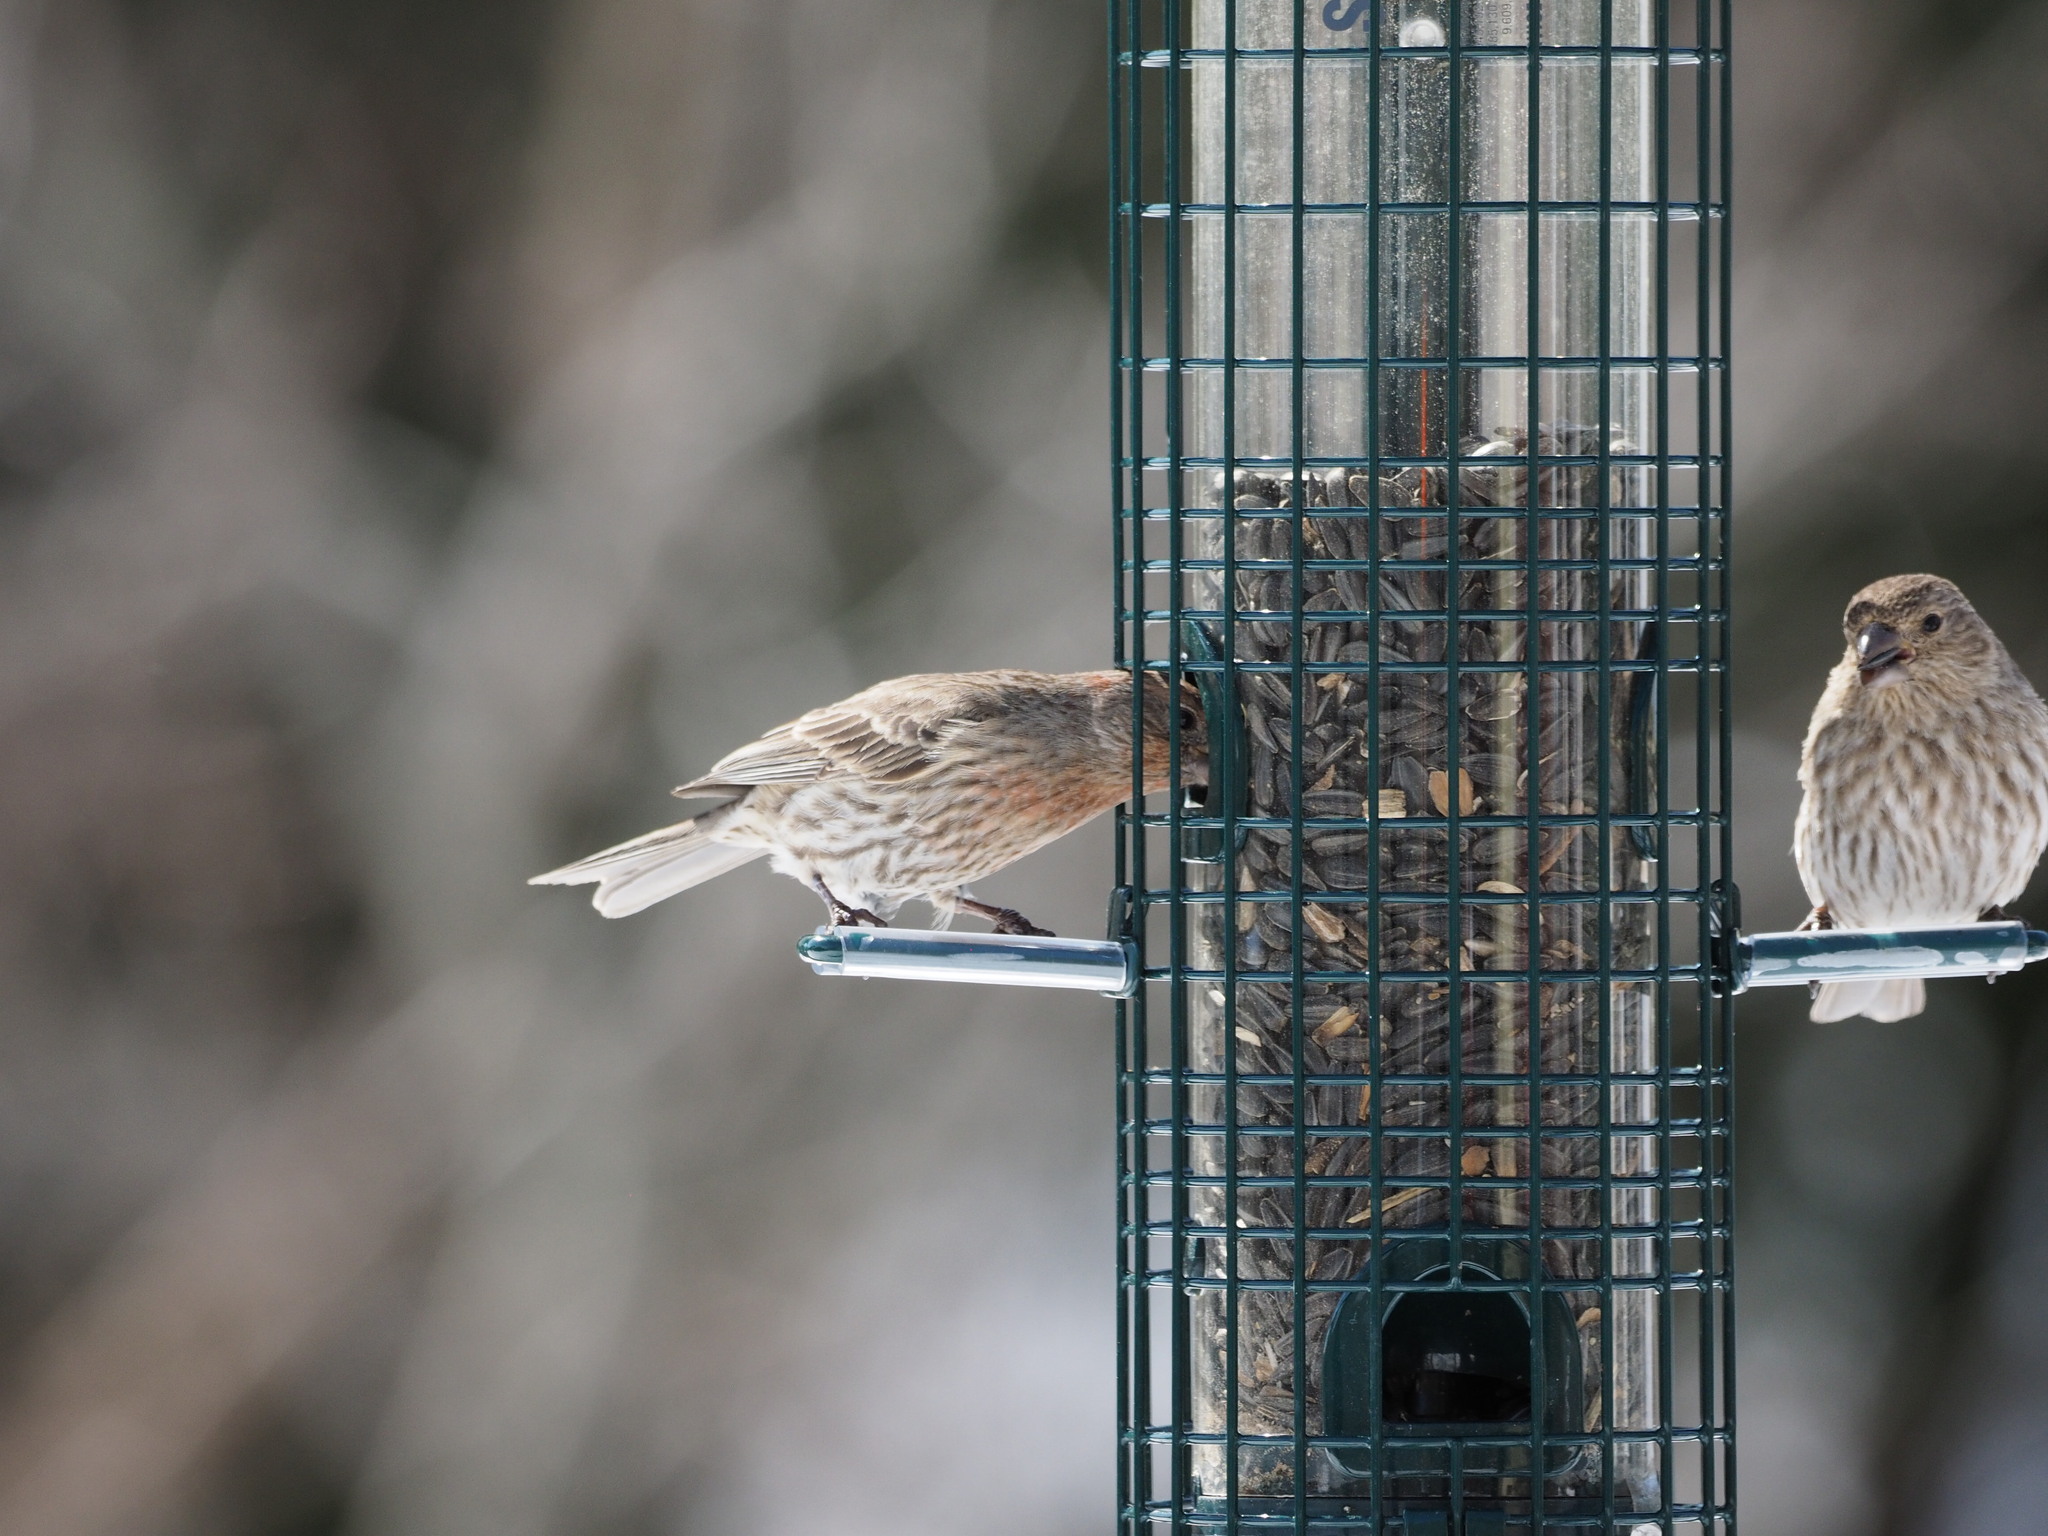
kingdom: Animalia
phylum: Chordata
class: Aves
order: Passeriformes
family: Fringillidae
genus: Haemorhous
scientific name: Haemorhous mexicanus
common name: House finch
